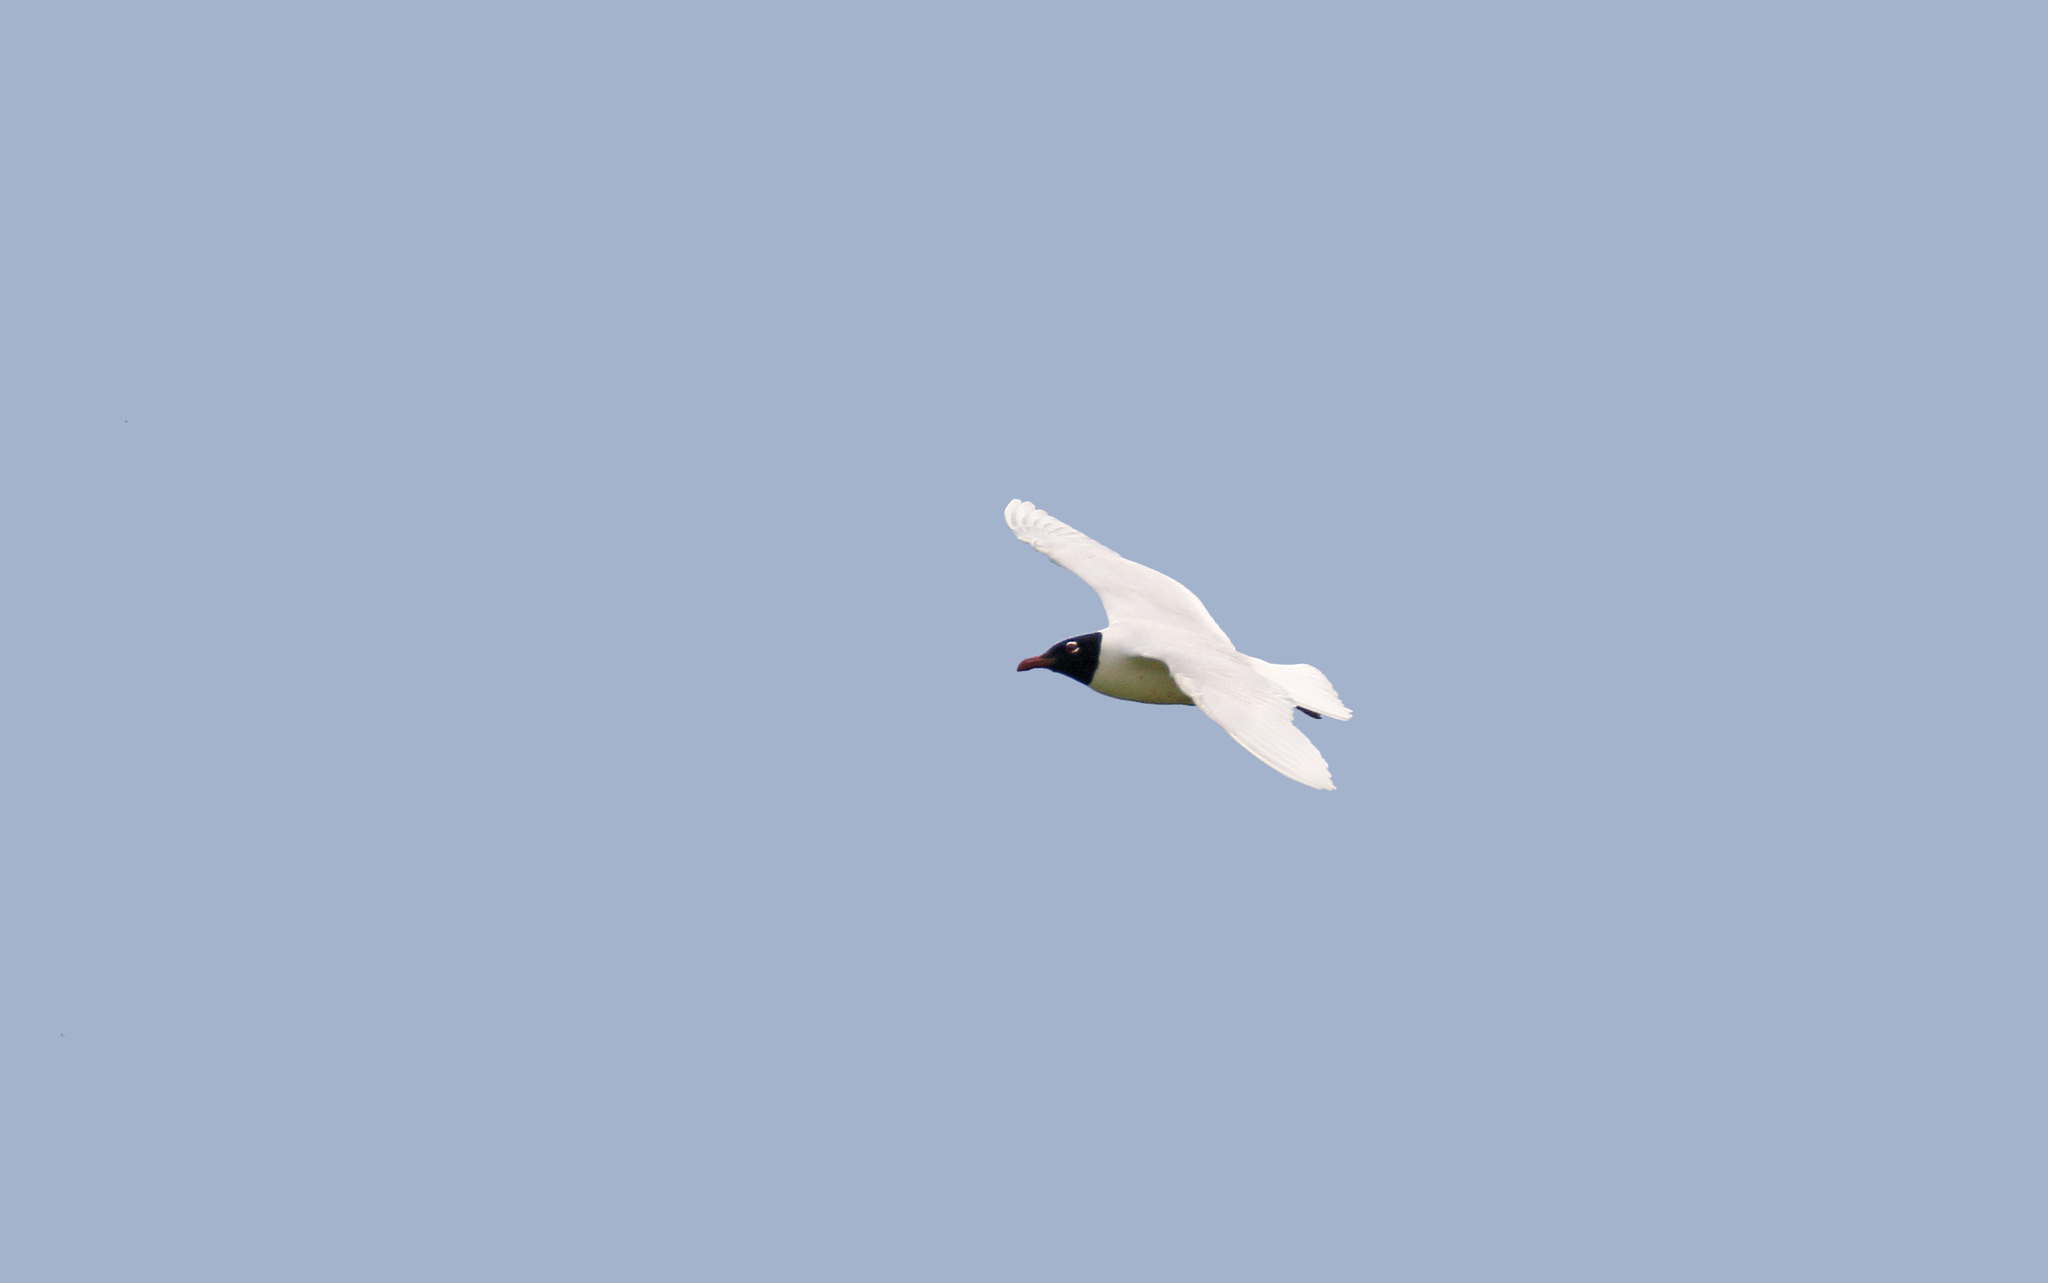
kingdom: Animalia
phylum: Chordata
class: Aves
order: Charadriiformes
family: Laridae
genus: Ichthyaetus
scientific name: Ichthyaetus melanocephalus
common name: Mediterranean gull
